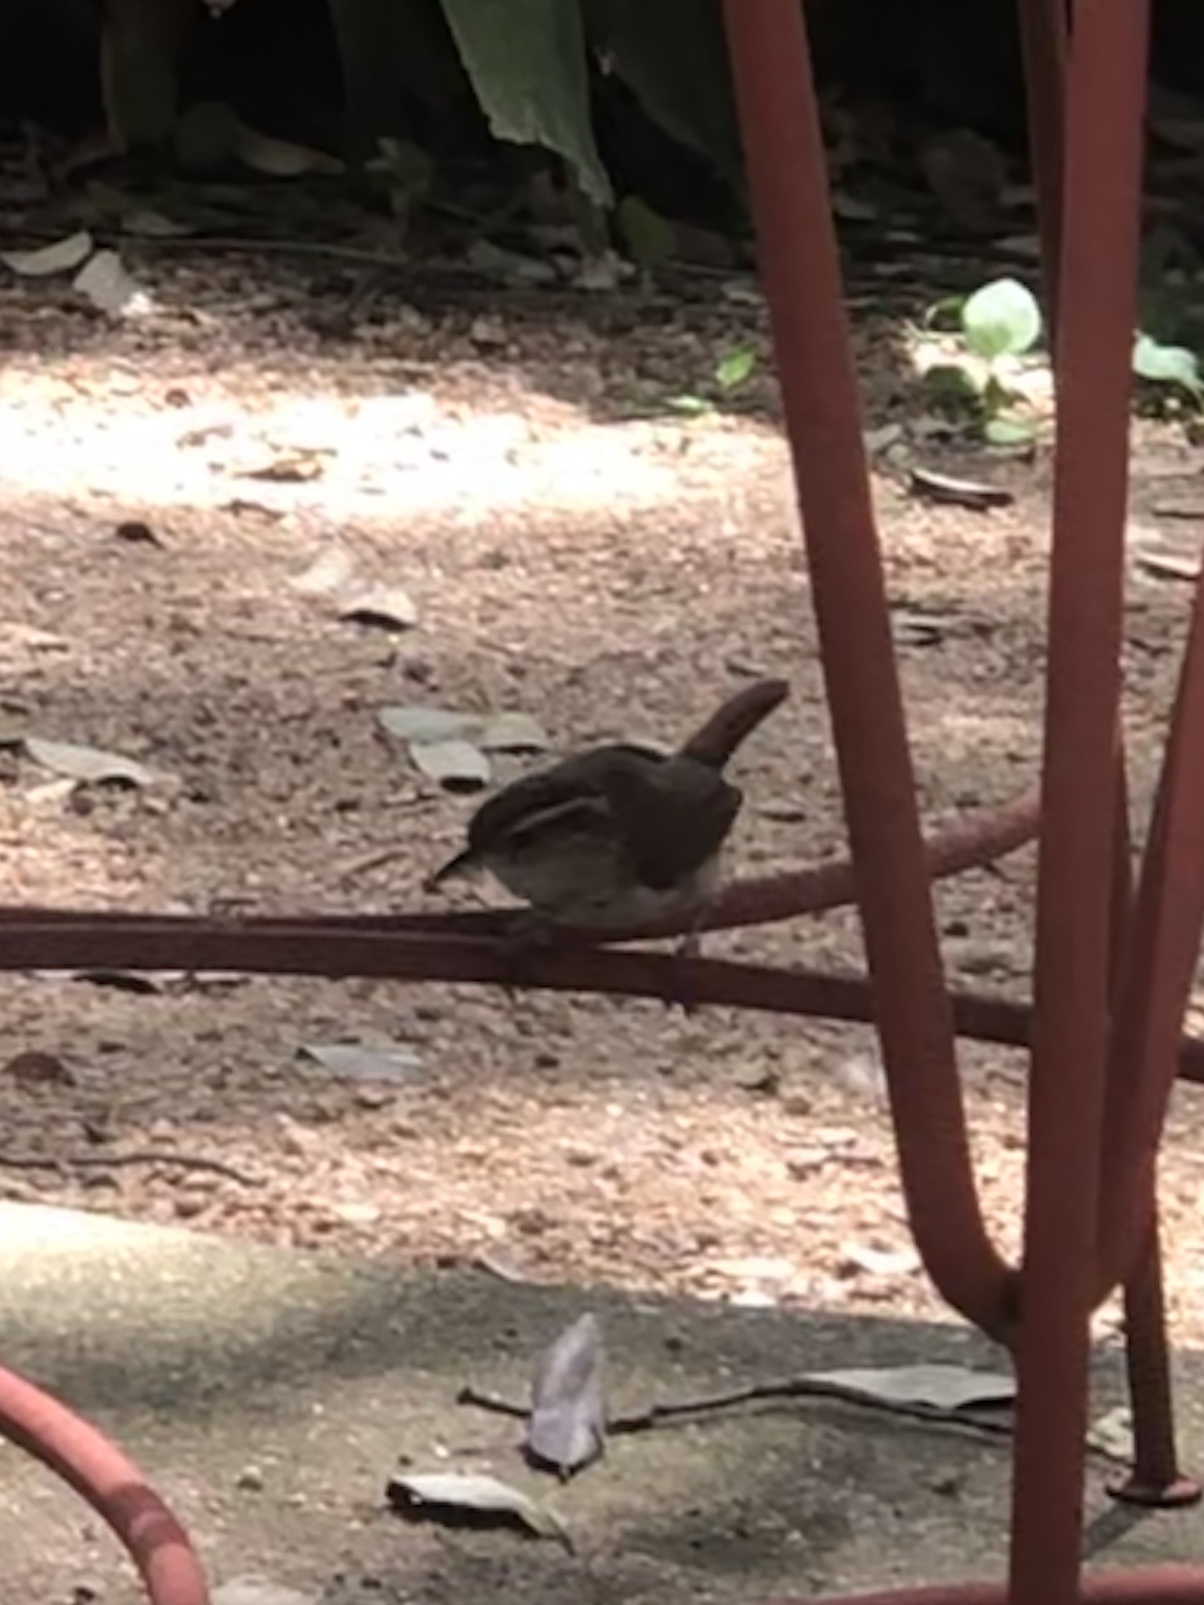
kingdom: Animalia
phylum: Chordata
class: Aves
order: Passeriformes
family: Troglodytidae
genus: Thryomanes
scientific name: Thryomanes bewickii
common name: Bewick's wren
